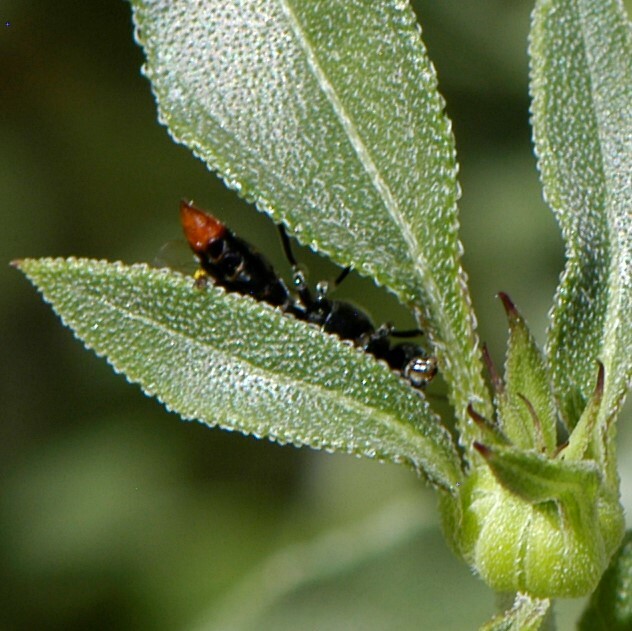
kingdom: Animalia
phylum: Arthropoda
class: Insecta
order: Hymenoptera
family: Crabronidae
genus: Tachysphex
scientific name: Tachysphex
